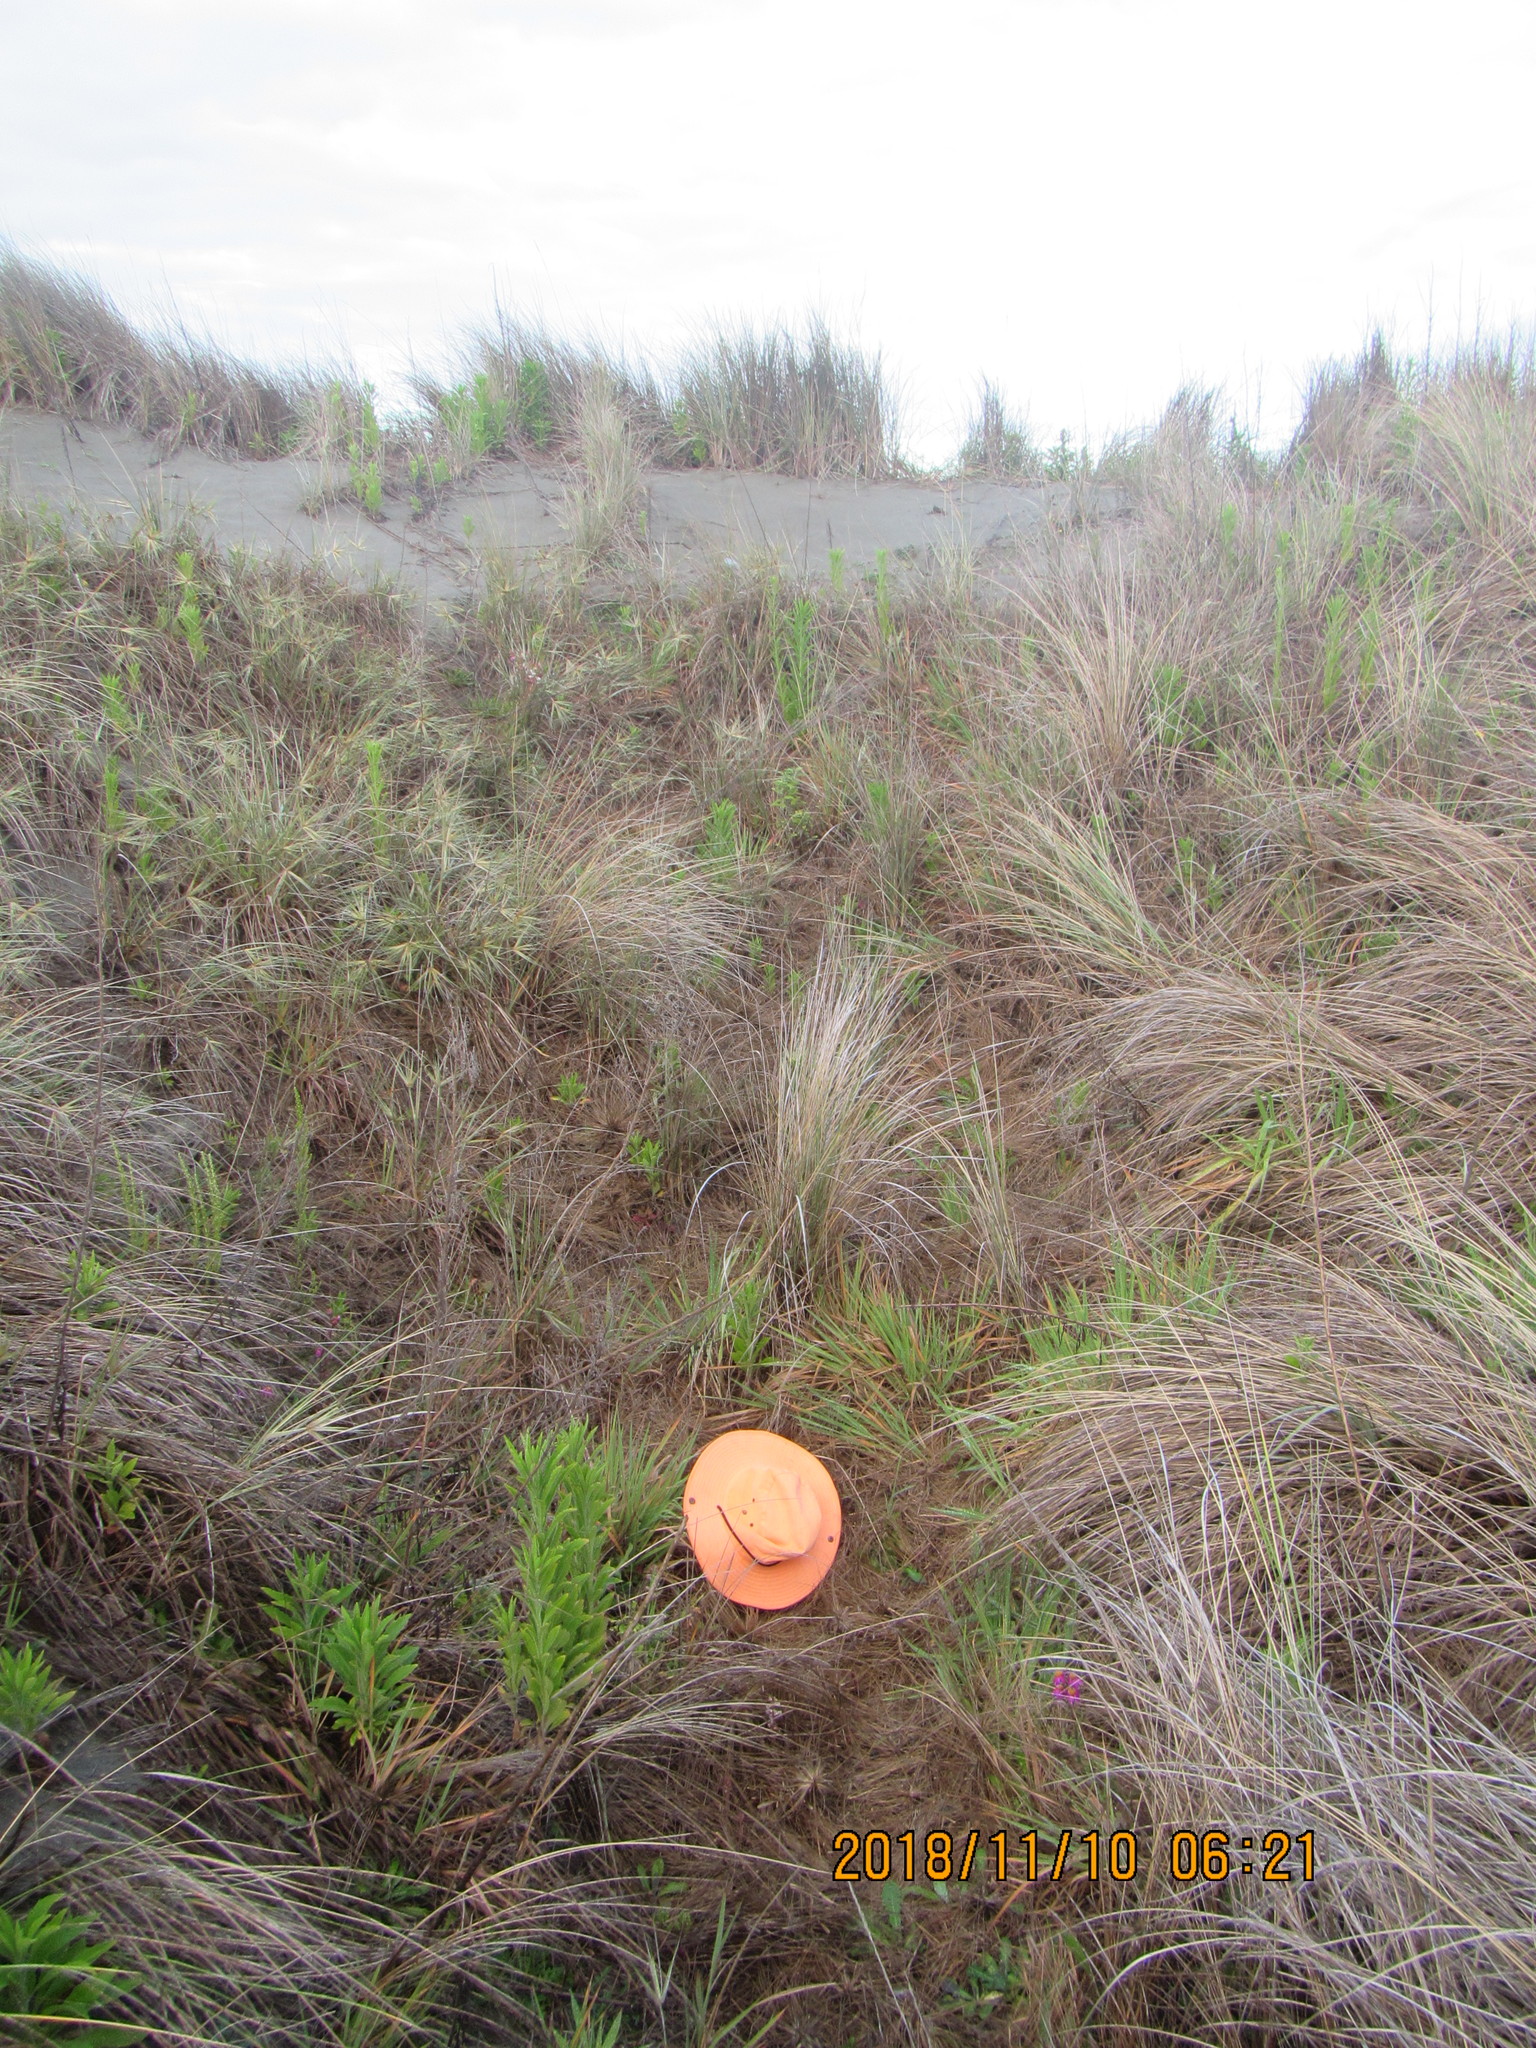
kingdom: Plantae
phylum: Tracheophyta
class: Liliopsida
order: Poales
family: Poaceae
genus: Lachnagrostis
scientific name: Lachnagrostis billardierei
